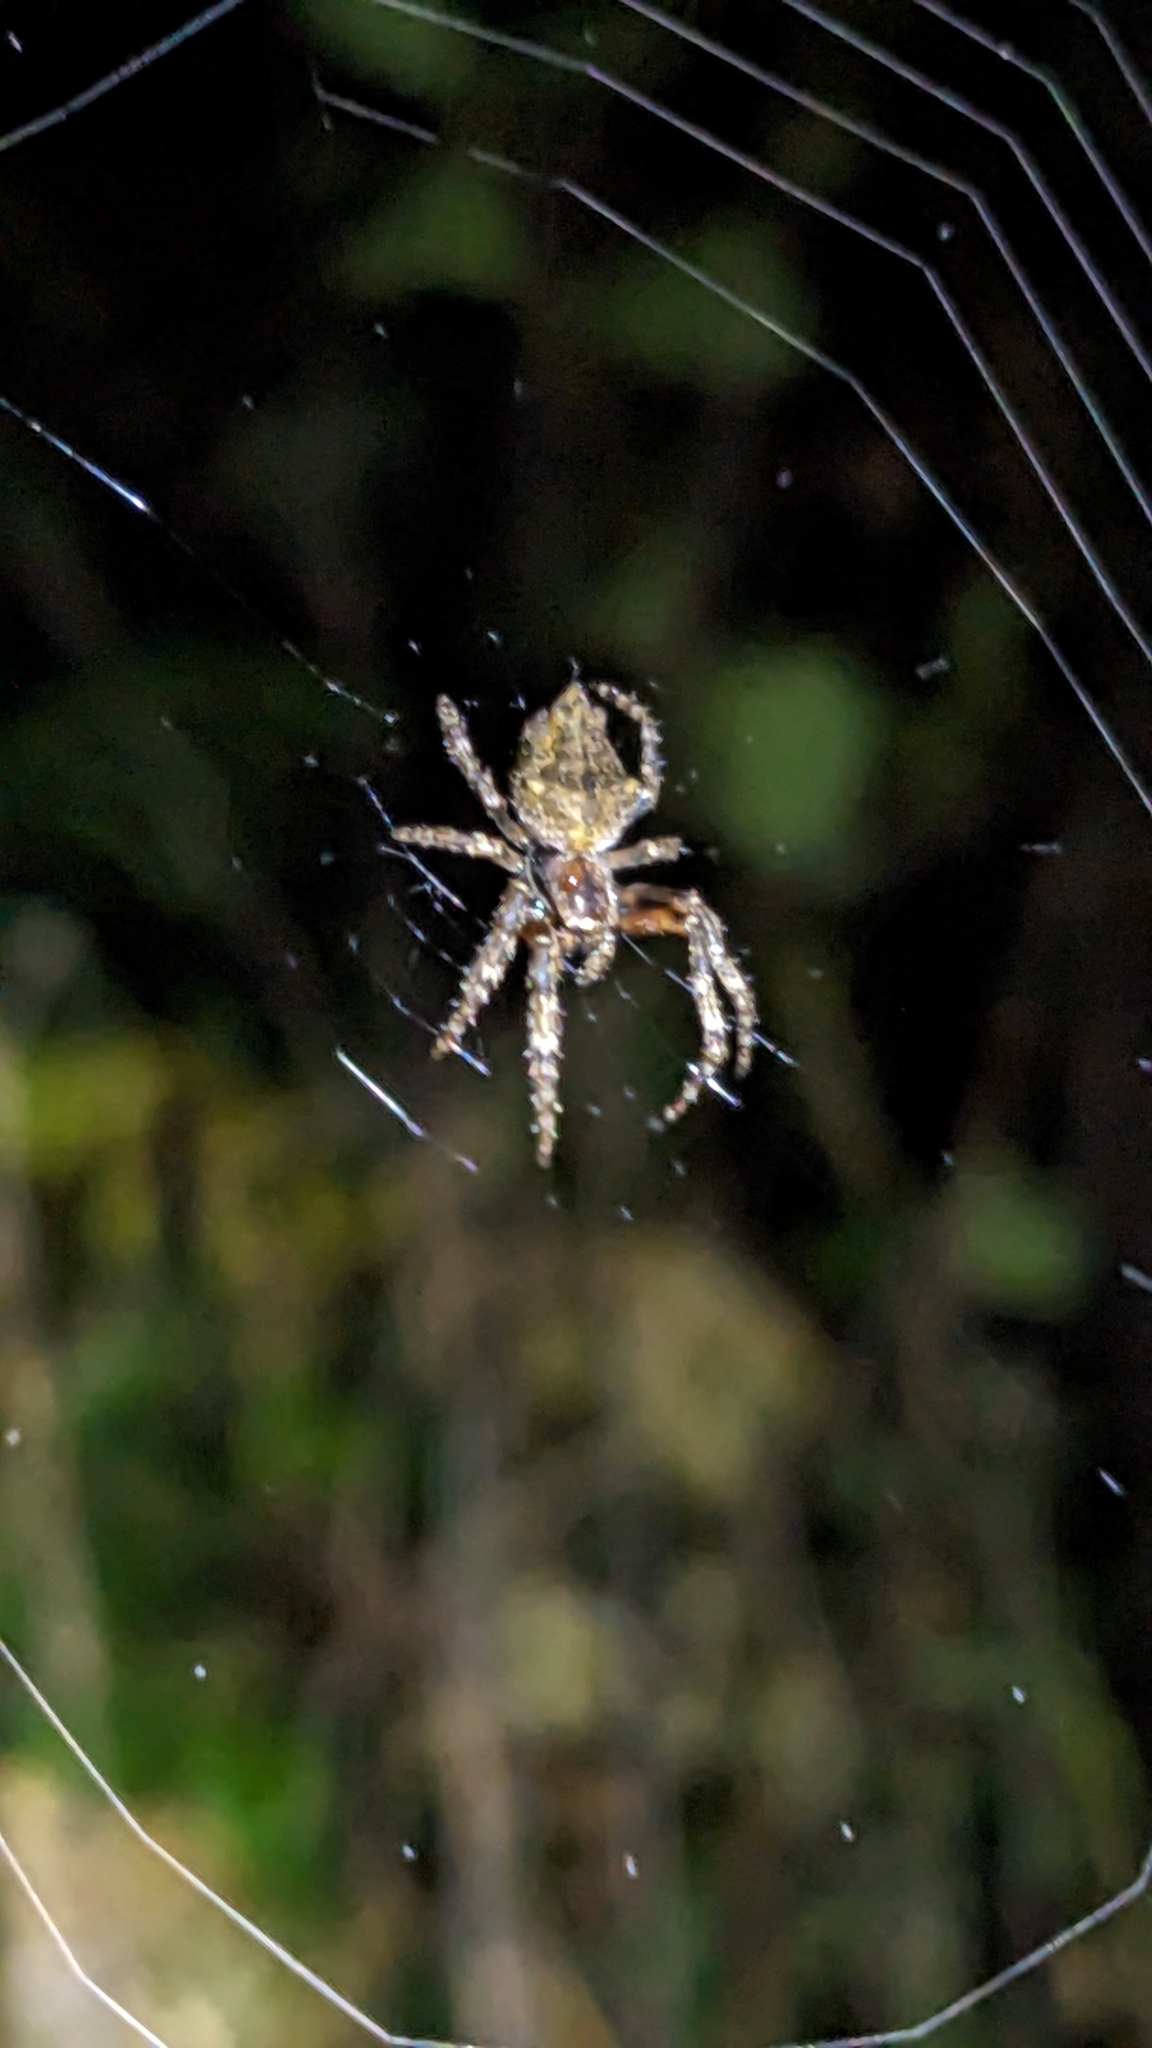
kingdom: Animalia
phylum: Arthropoda
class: Arachnida
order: Araneae
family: Araneidae
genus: Eriophora
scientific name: Eriophora pustulosa
